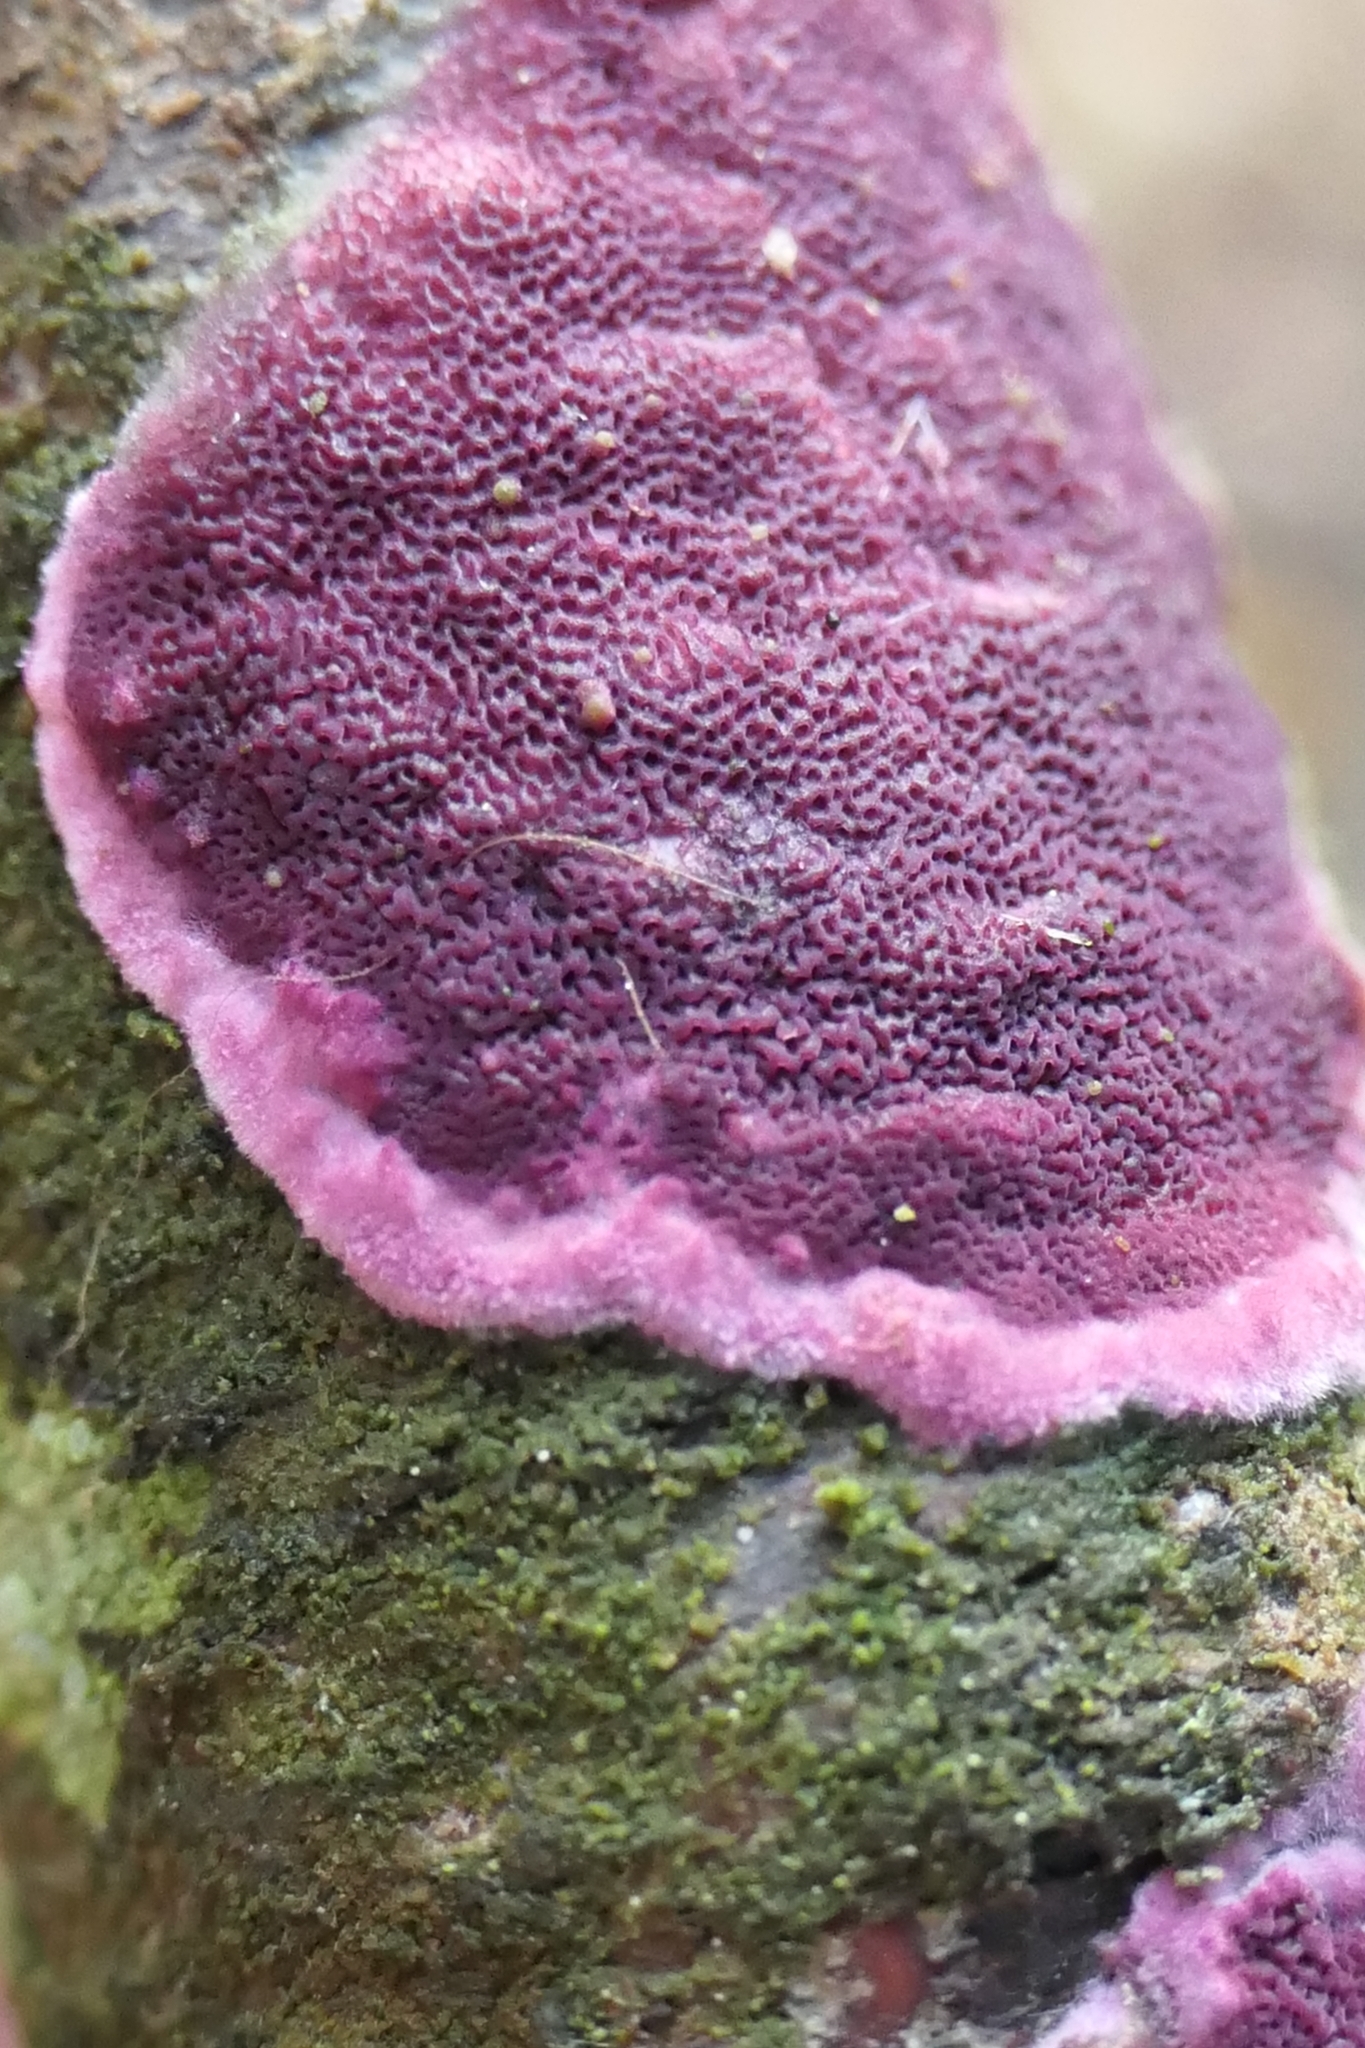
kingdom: Fungi
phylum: Basidiomycota
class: Agaricomycetes
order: Polyporales
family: Irpicaceae
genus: Byssomerulius
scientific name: Byssomerulius psittacinus
